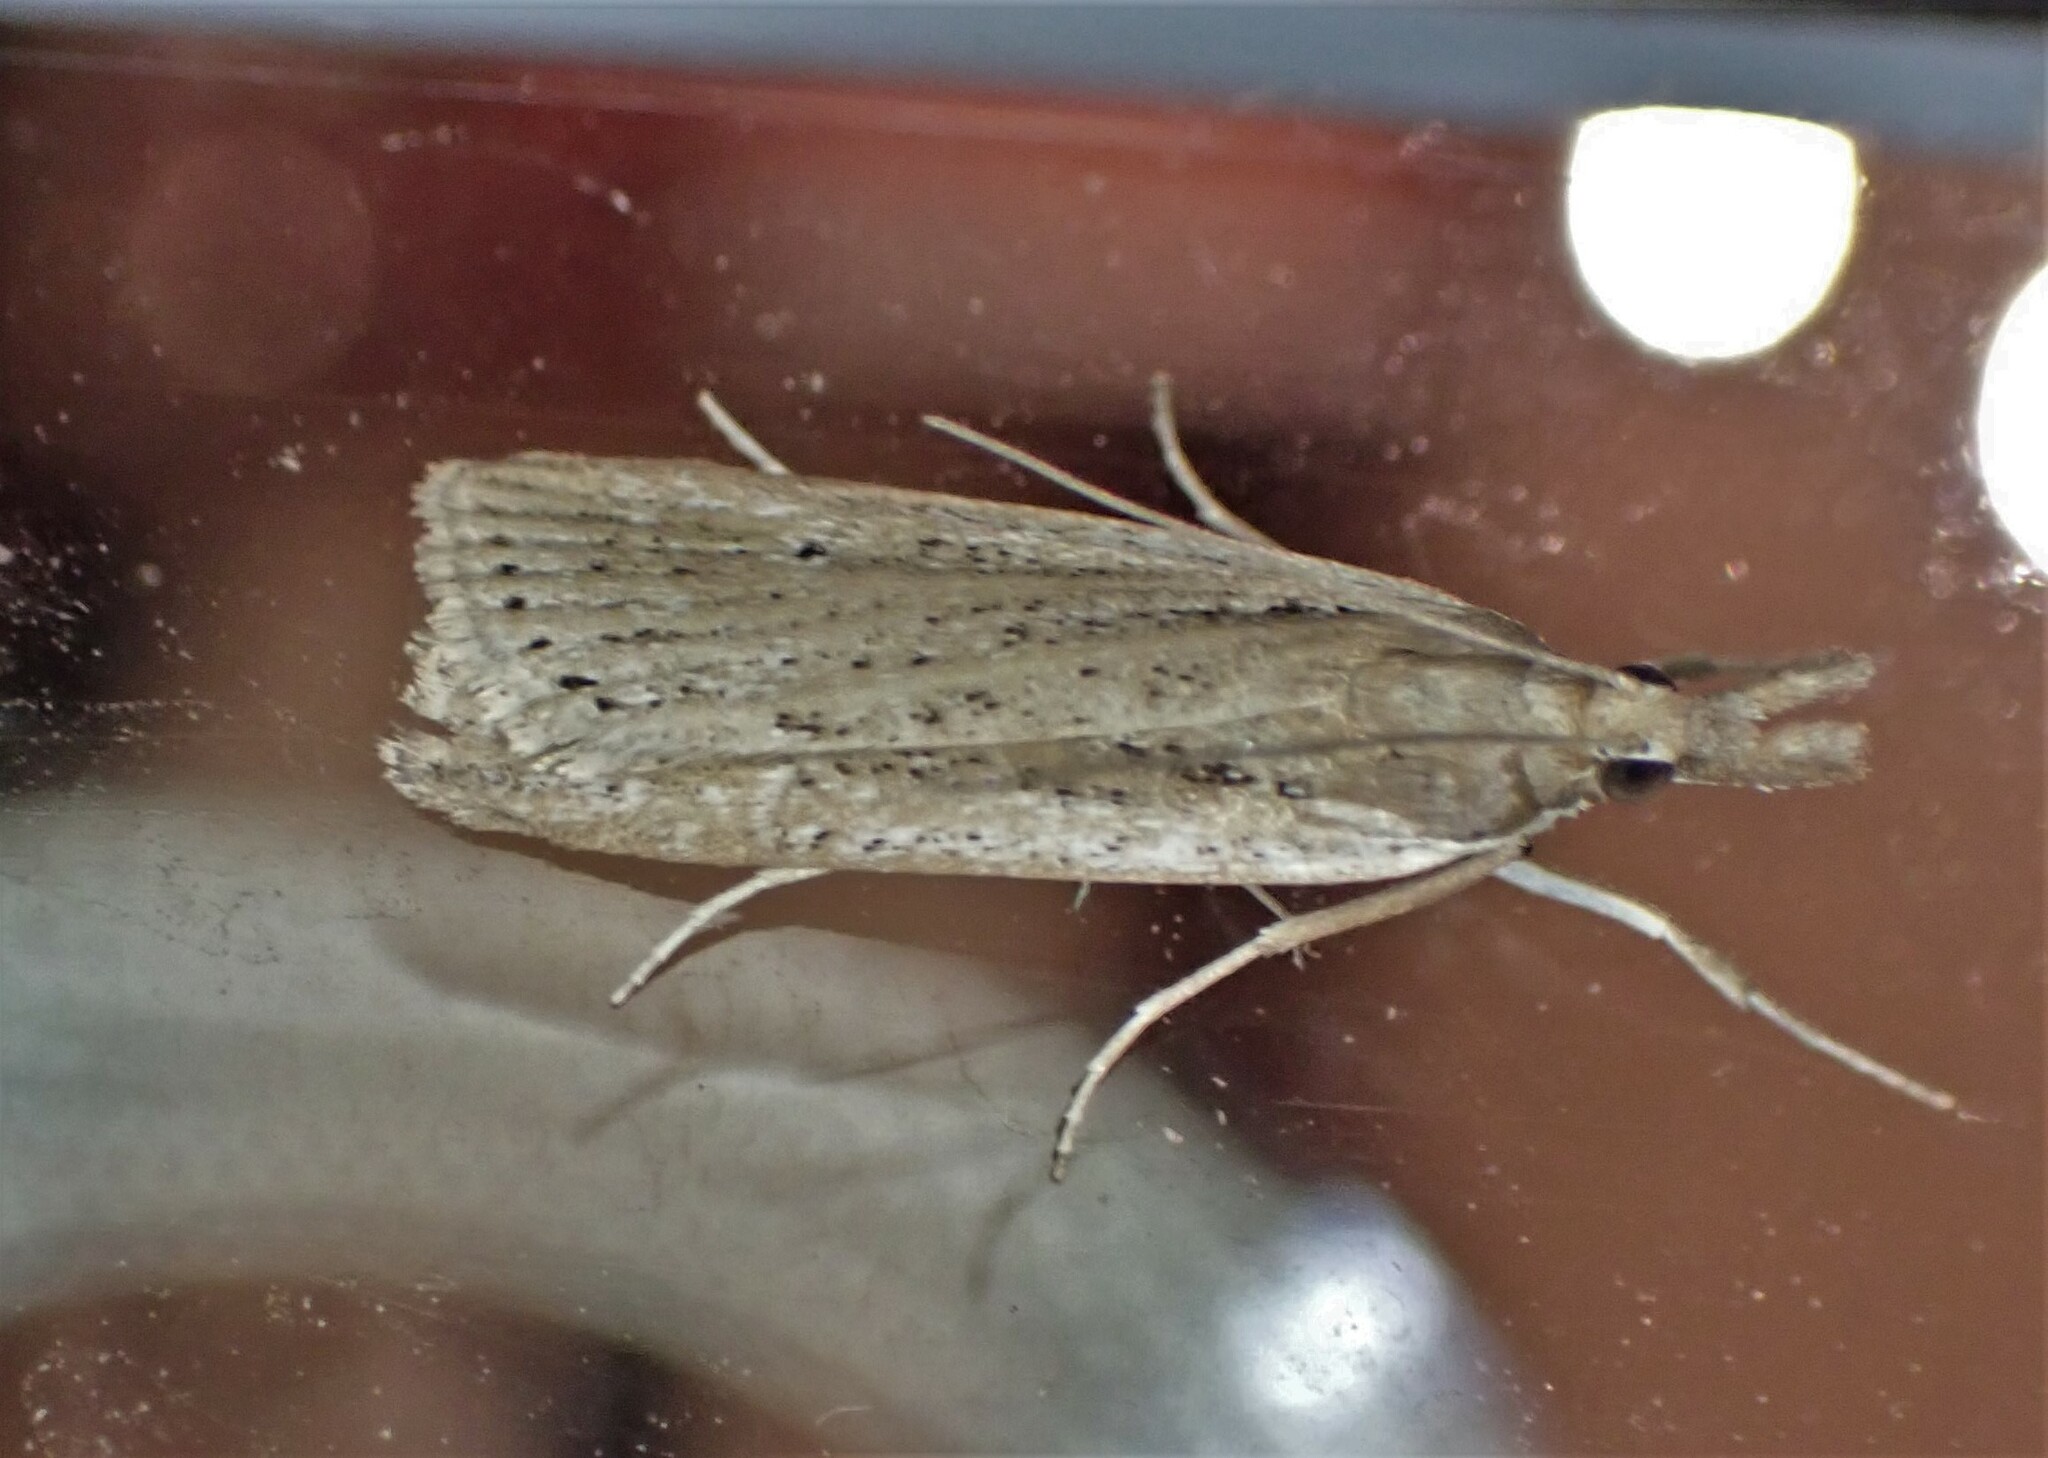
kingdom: Animalia
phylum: Arthropoda
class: Insecta
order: Lepidoptera
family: Crambidae
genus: Eudonia
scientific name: Eudonia sabulosella
